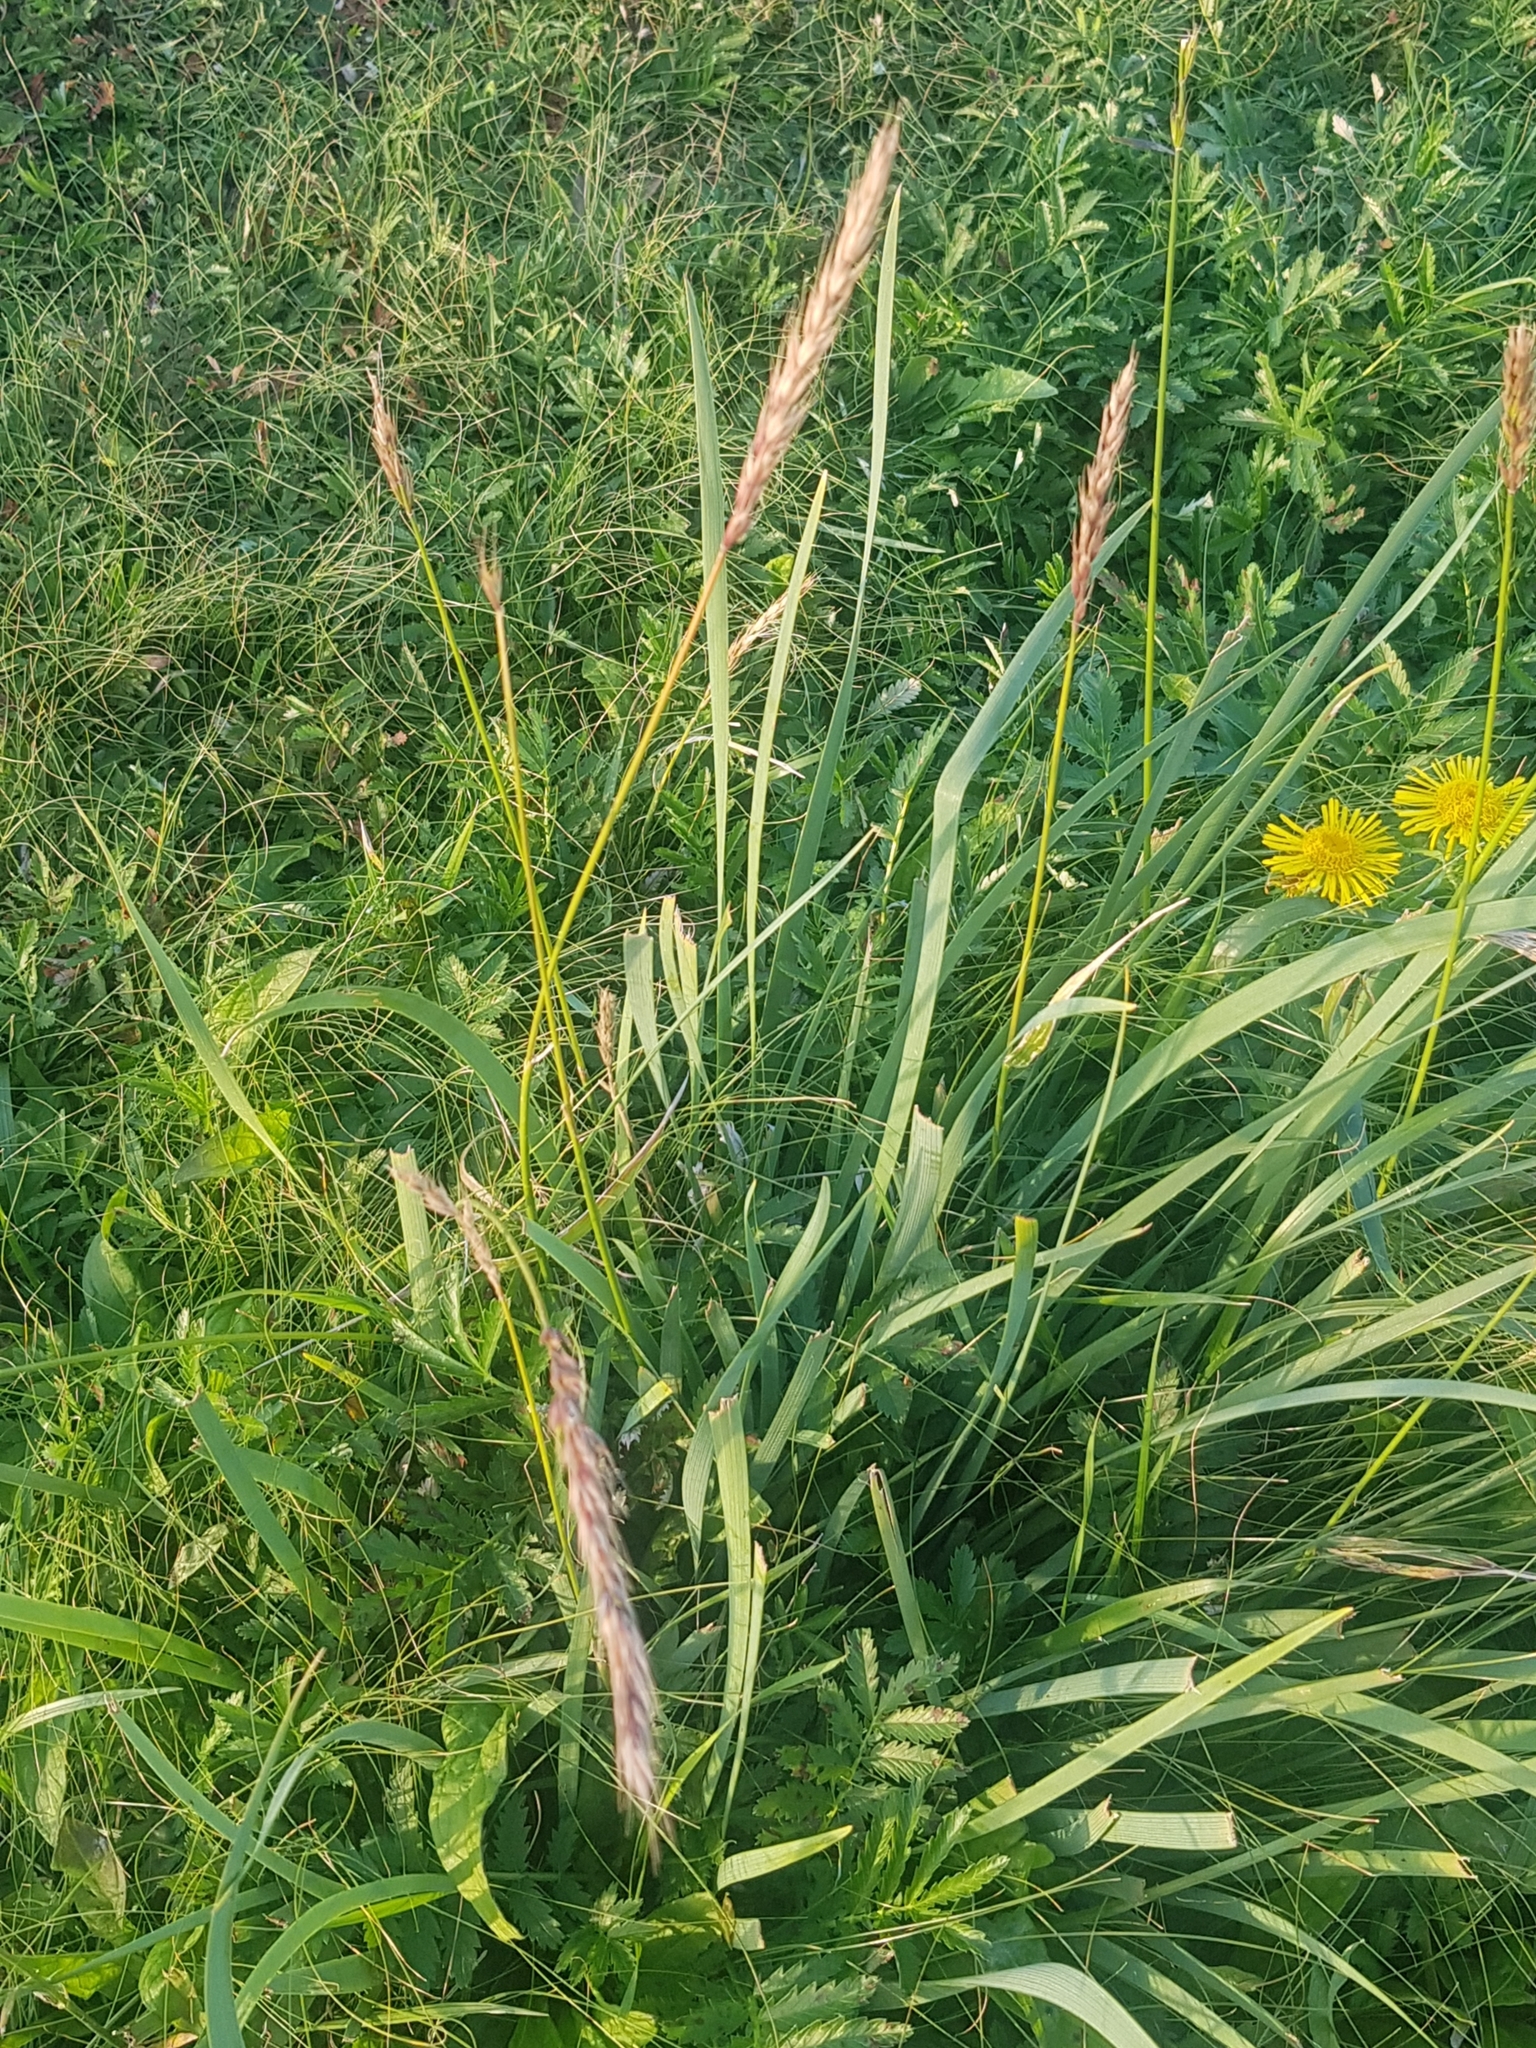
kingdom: Plantae
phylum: Tracheophyta
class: Liliopsida
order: Poales
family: Poaceae
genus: Leymus
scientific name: Leymus racemosus
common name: Mammoth wildrye
